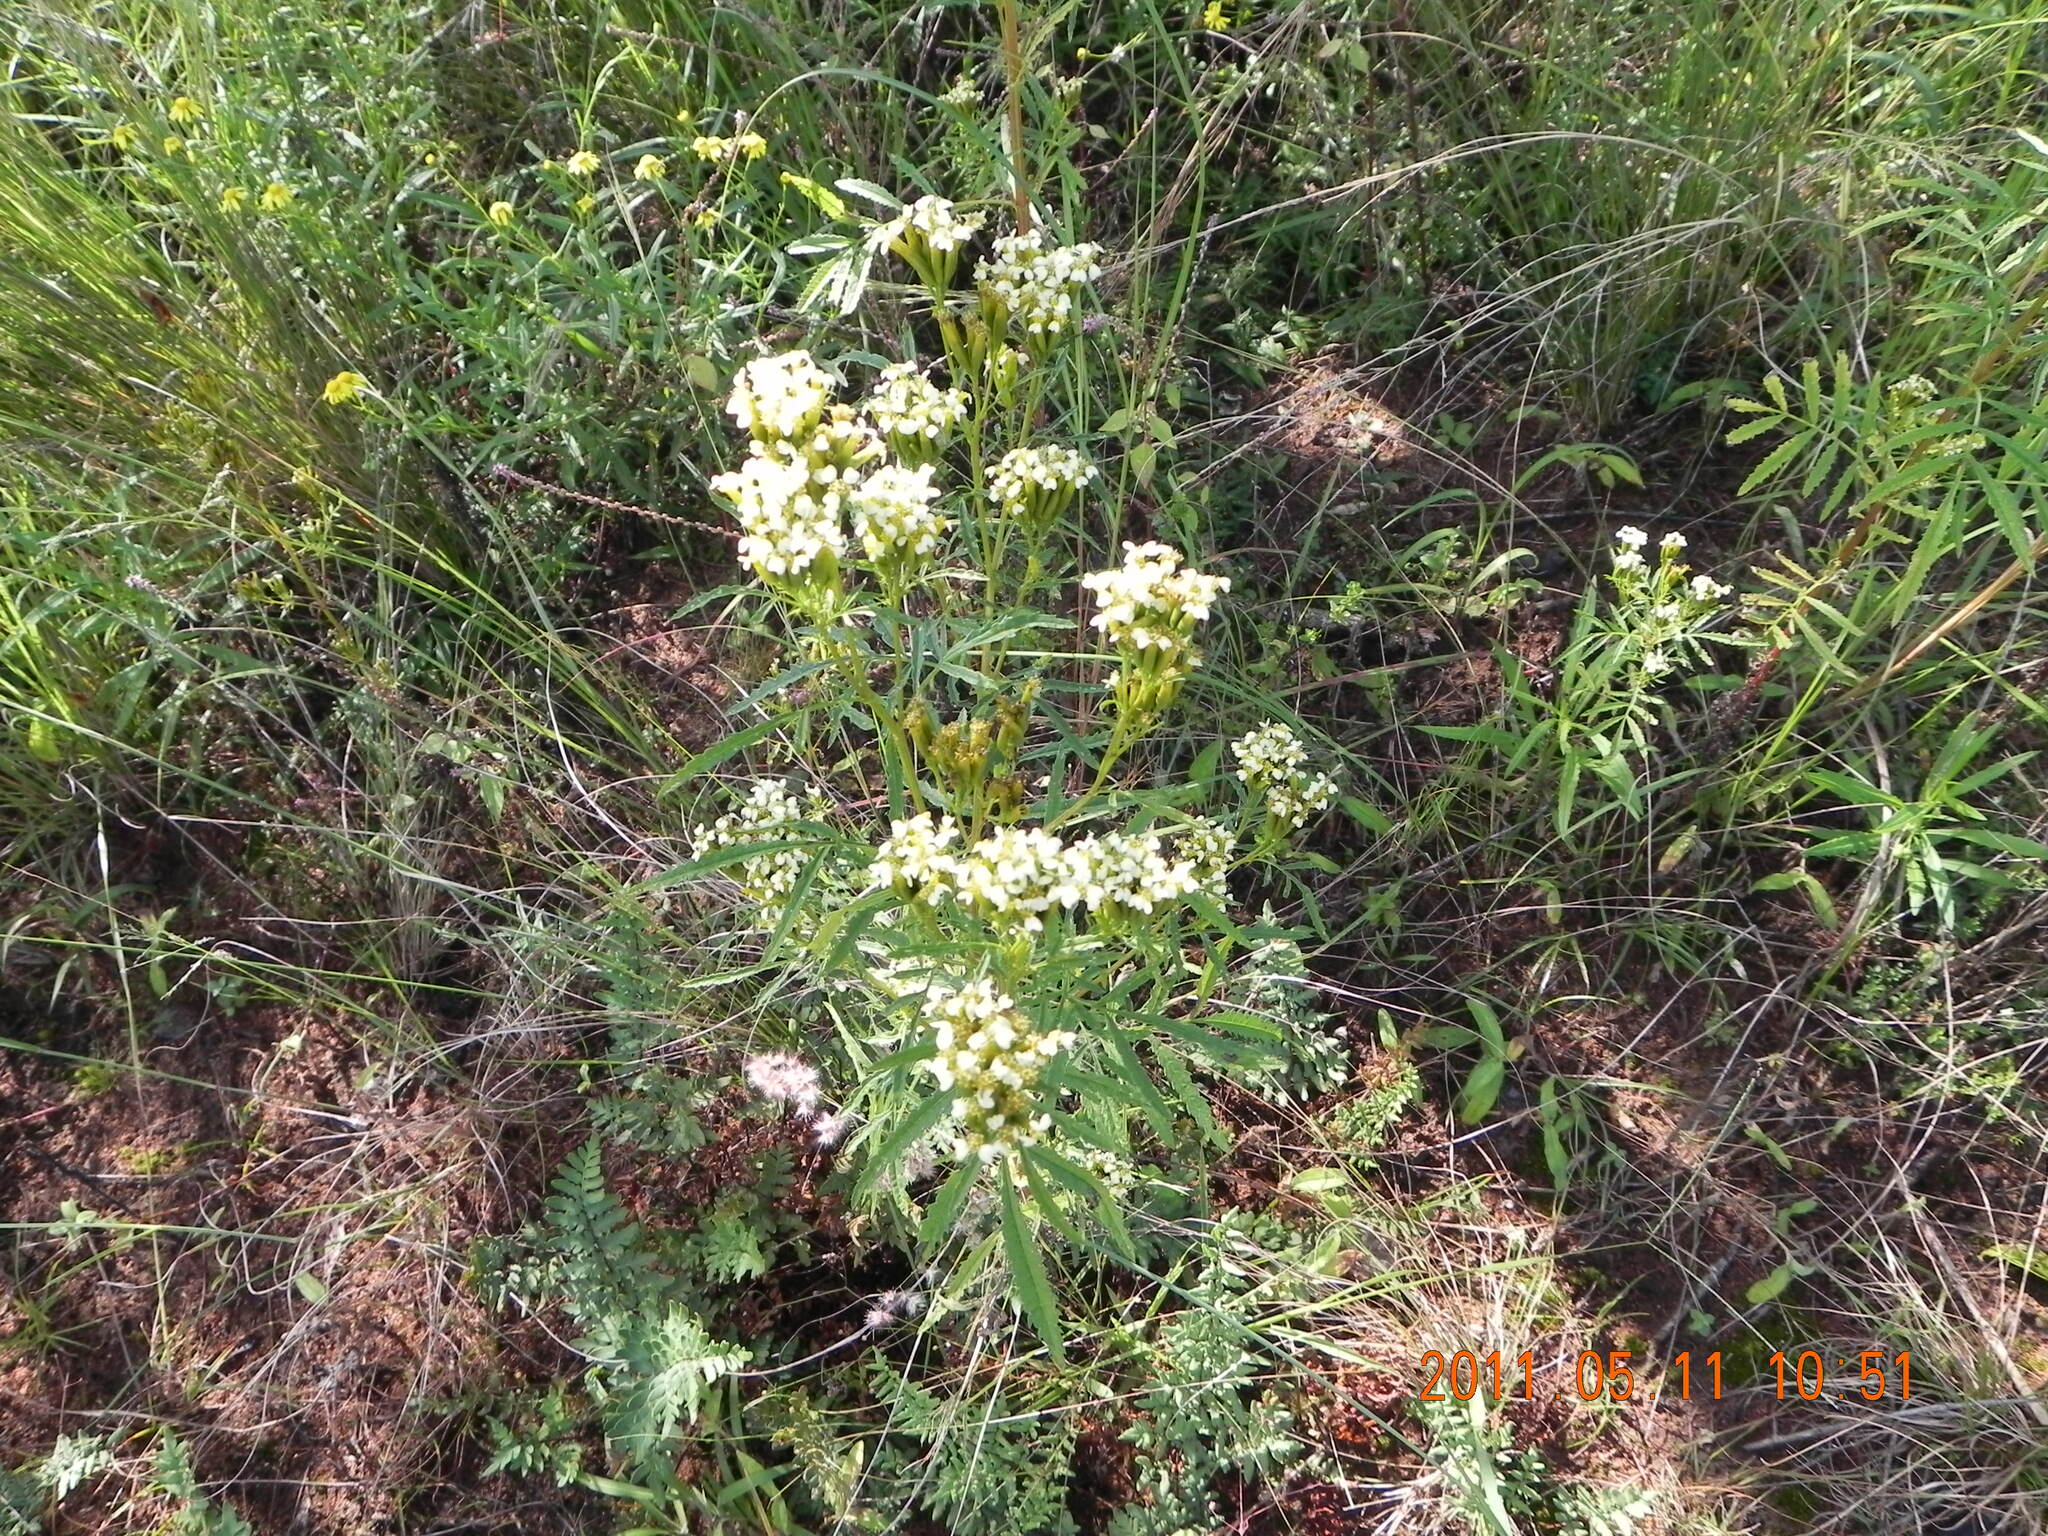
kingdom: Plantae
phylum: Tracheophyta
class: Magnoliopsida
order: Asterales
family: Asteraceae
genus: Tagetes
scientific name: Tagetes minuta
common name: Muster john henry
